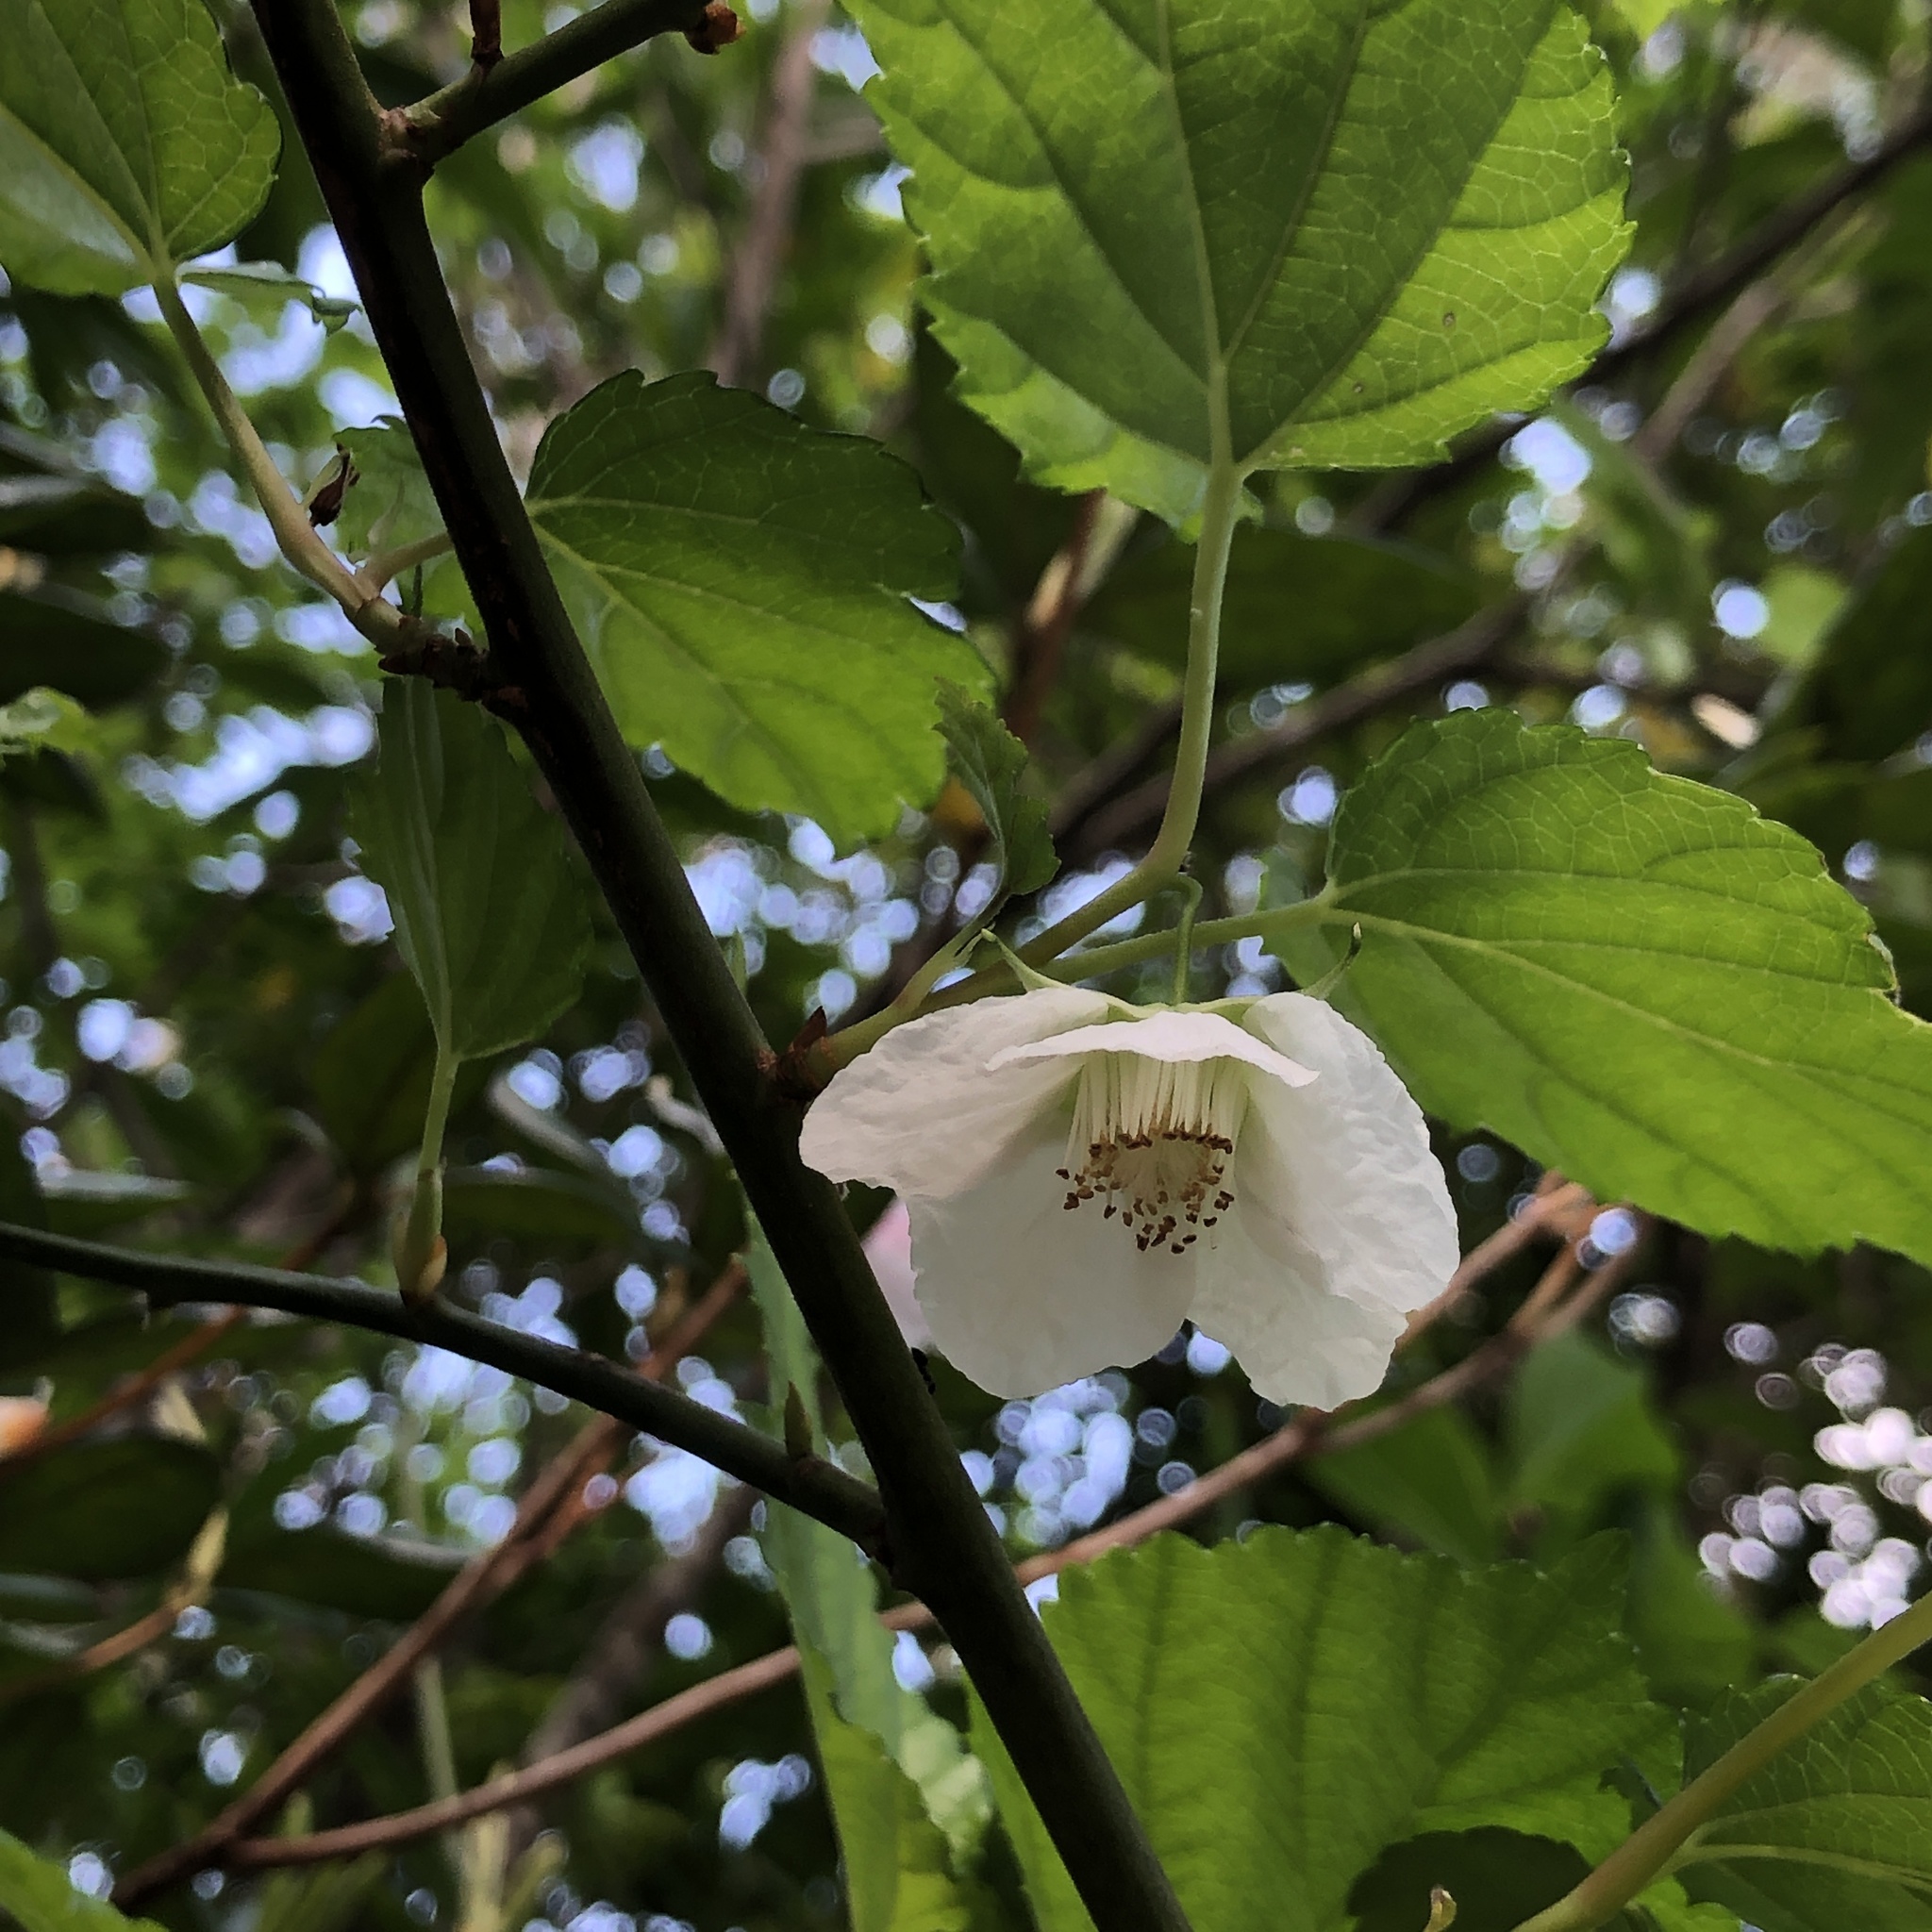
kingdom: Plantae
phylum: Tracheophyta
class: Magnoliopsida
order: Rosales
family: Rosaceae
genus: Rubus
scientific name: Rubus grayanus
